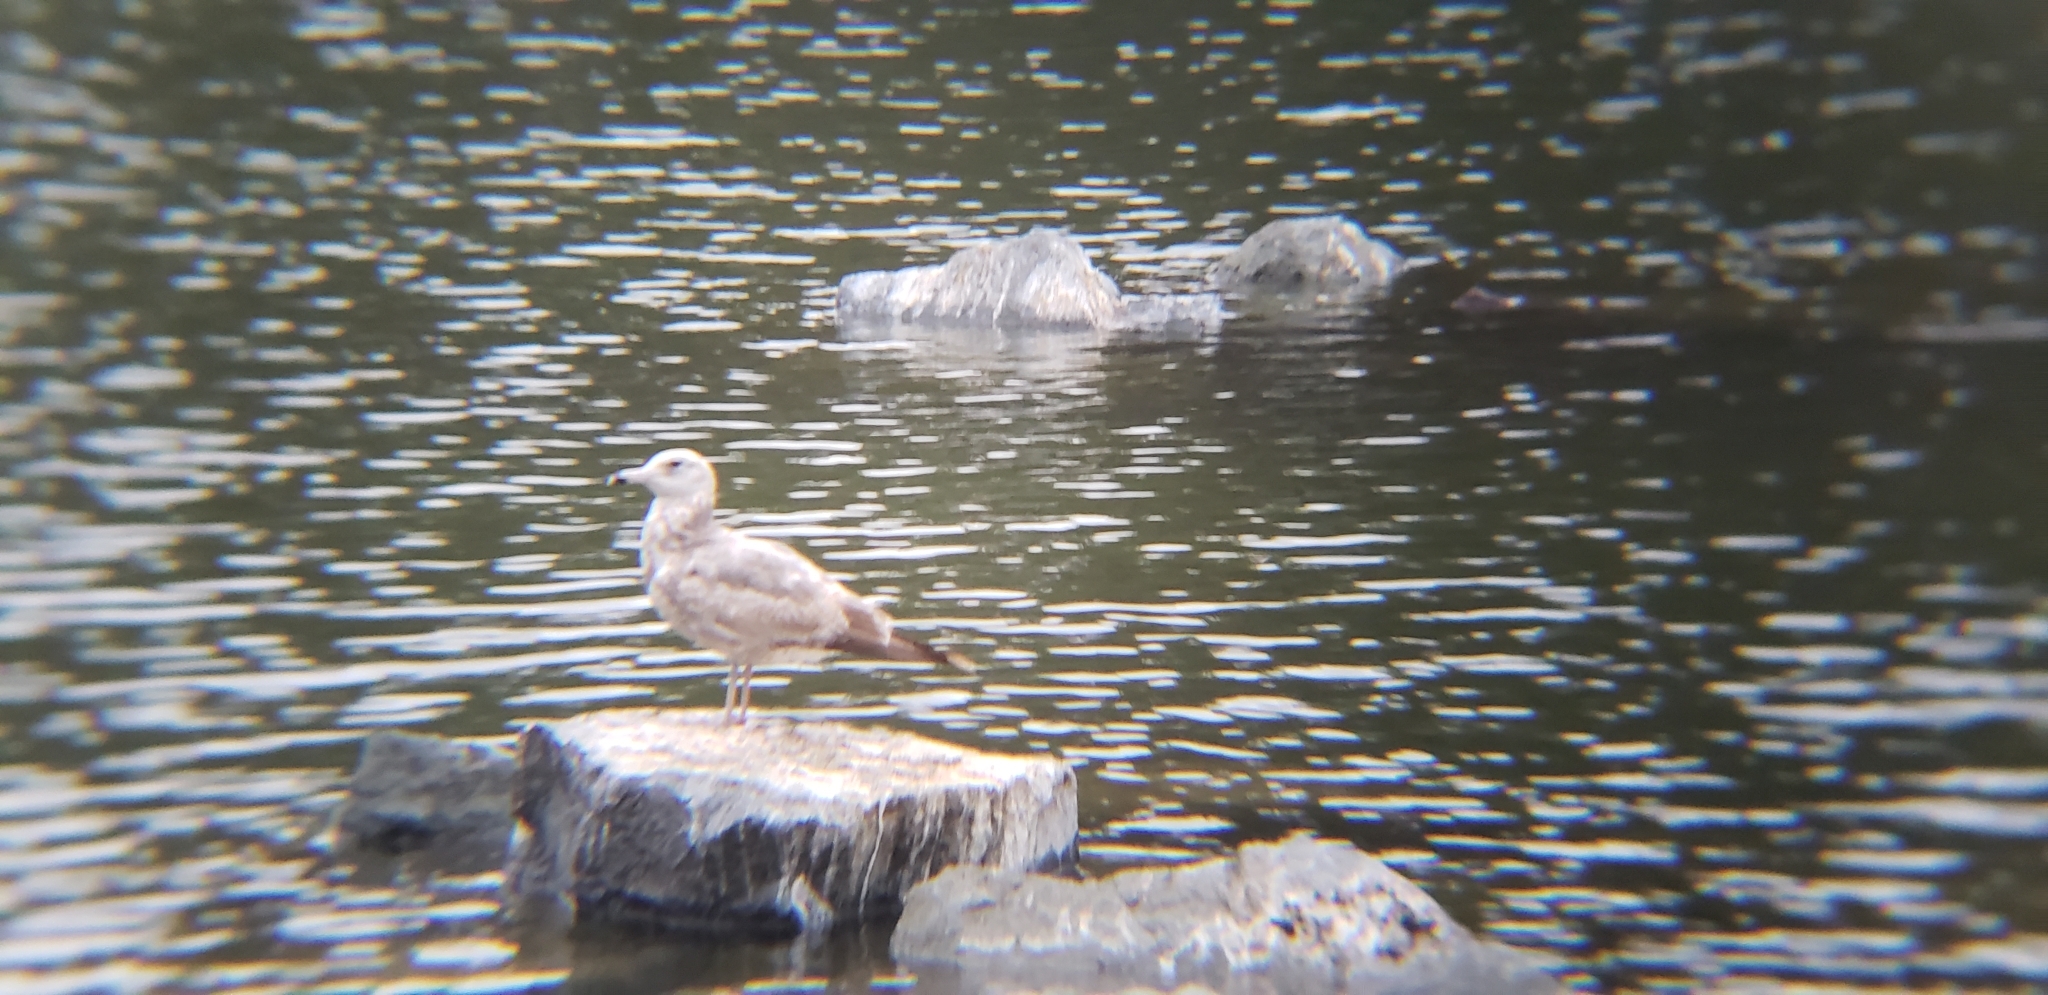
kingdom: Animalia
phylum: Chordata
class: Aves
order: Charadriiformes
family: Laridae
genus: Larus
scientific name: Larus californicus
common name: California gull
